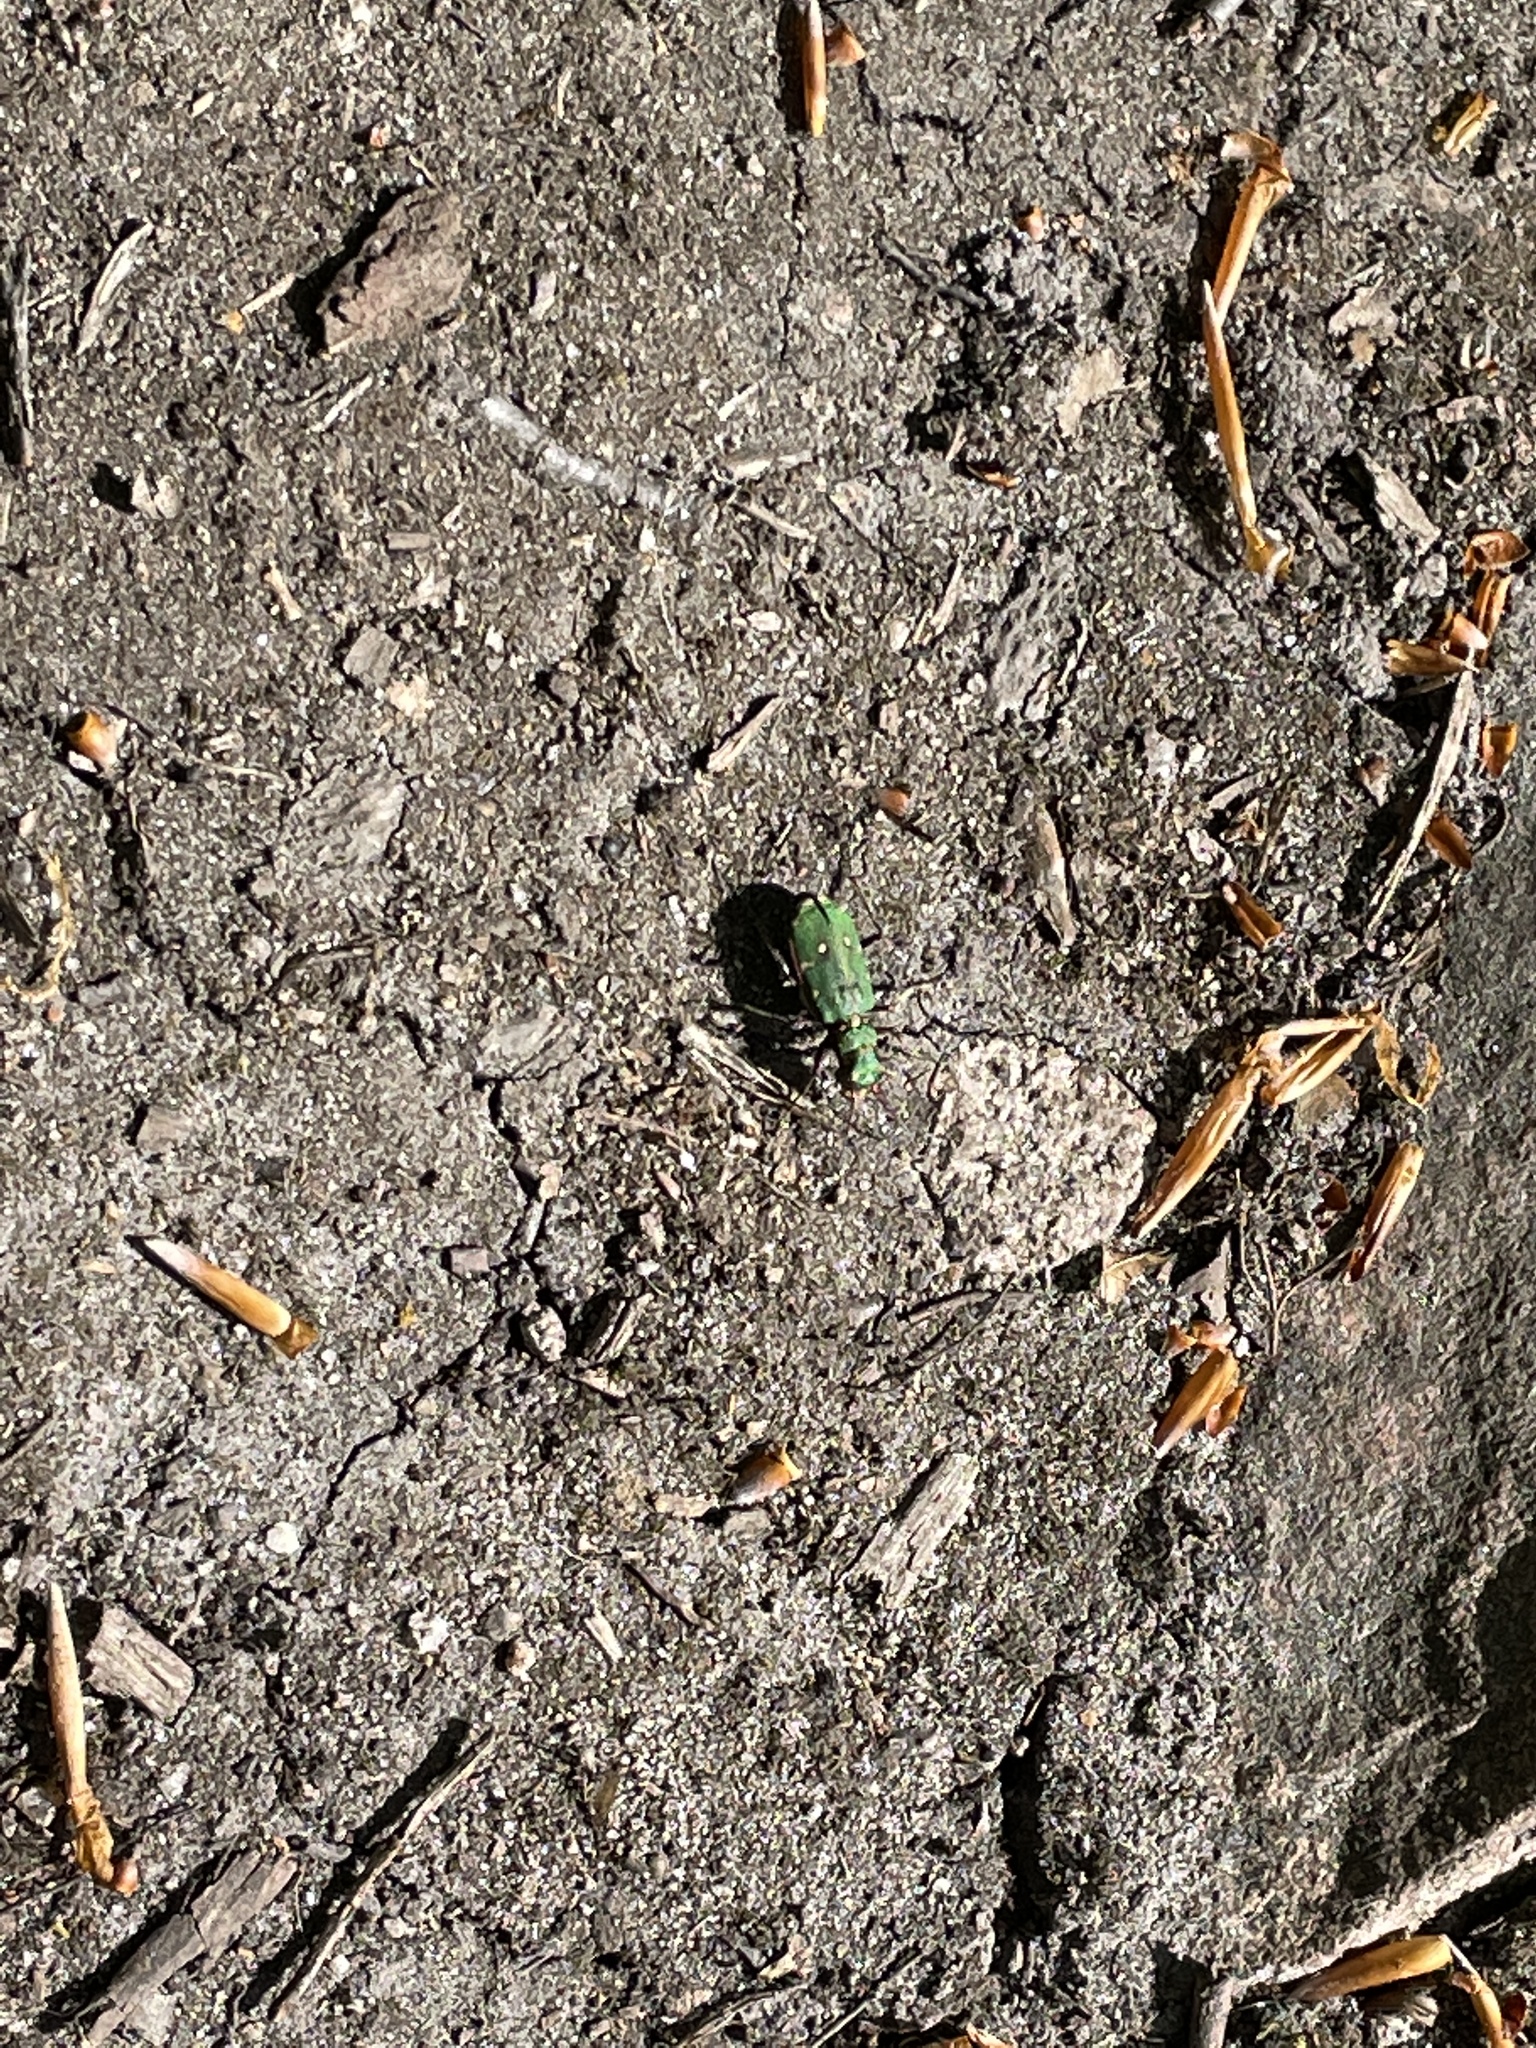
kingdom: Animalia
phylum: Arthropoda
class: Insecta
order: Coleoptera
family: Carabidae
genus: Cicindela
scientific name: Cicindela campestris
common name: Common tiger beetle
